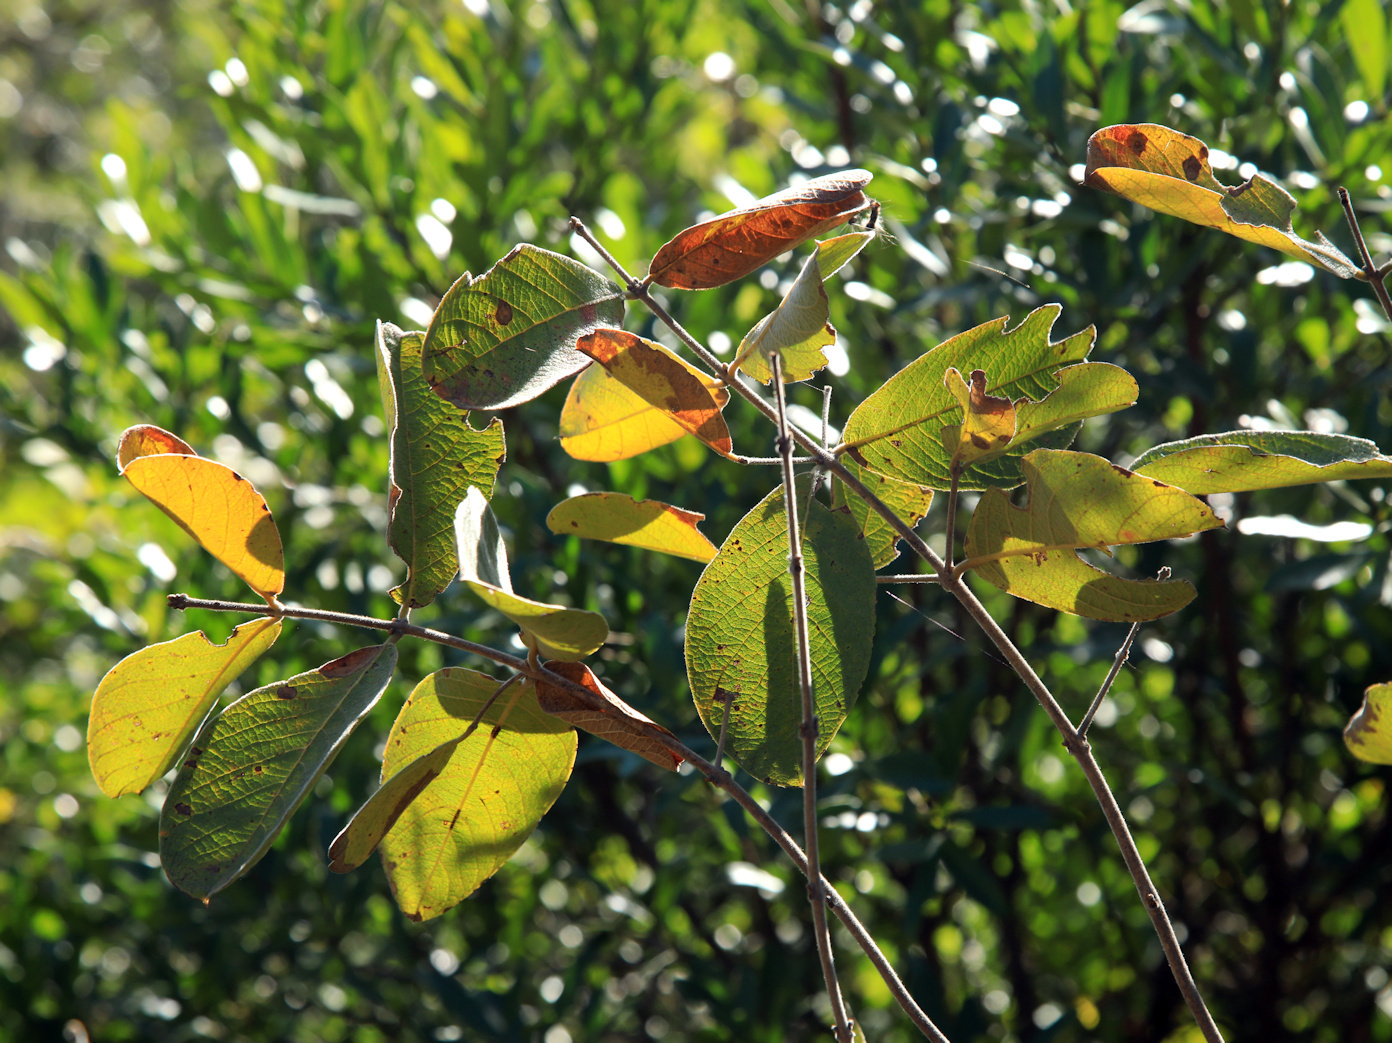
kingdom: Plantae
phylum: Tracheophyta
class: Magnoliopsida
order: Myrtales
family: Combretaceae
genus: Combretum
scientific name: Combretum molle
